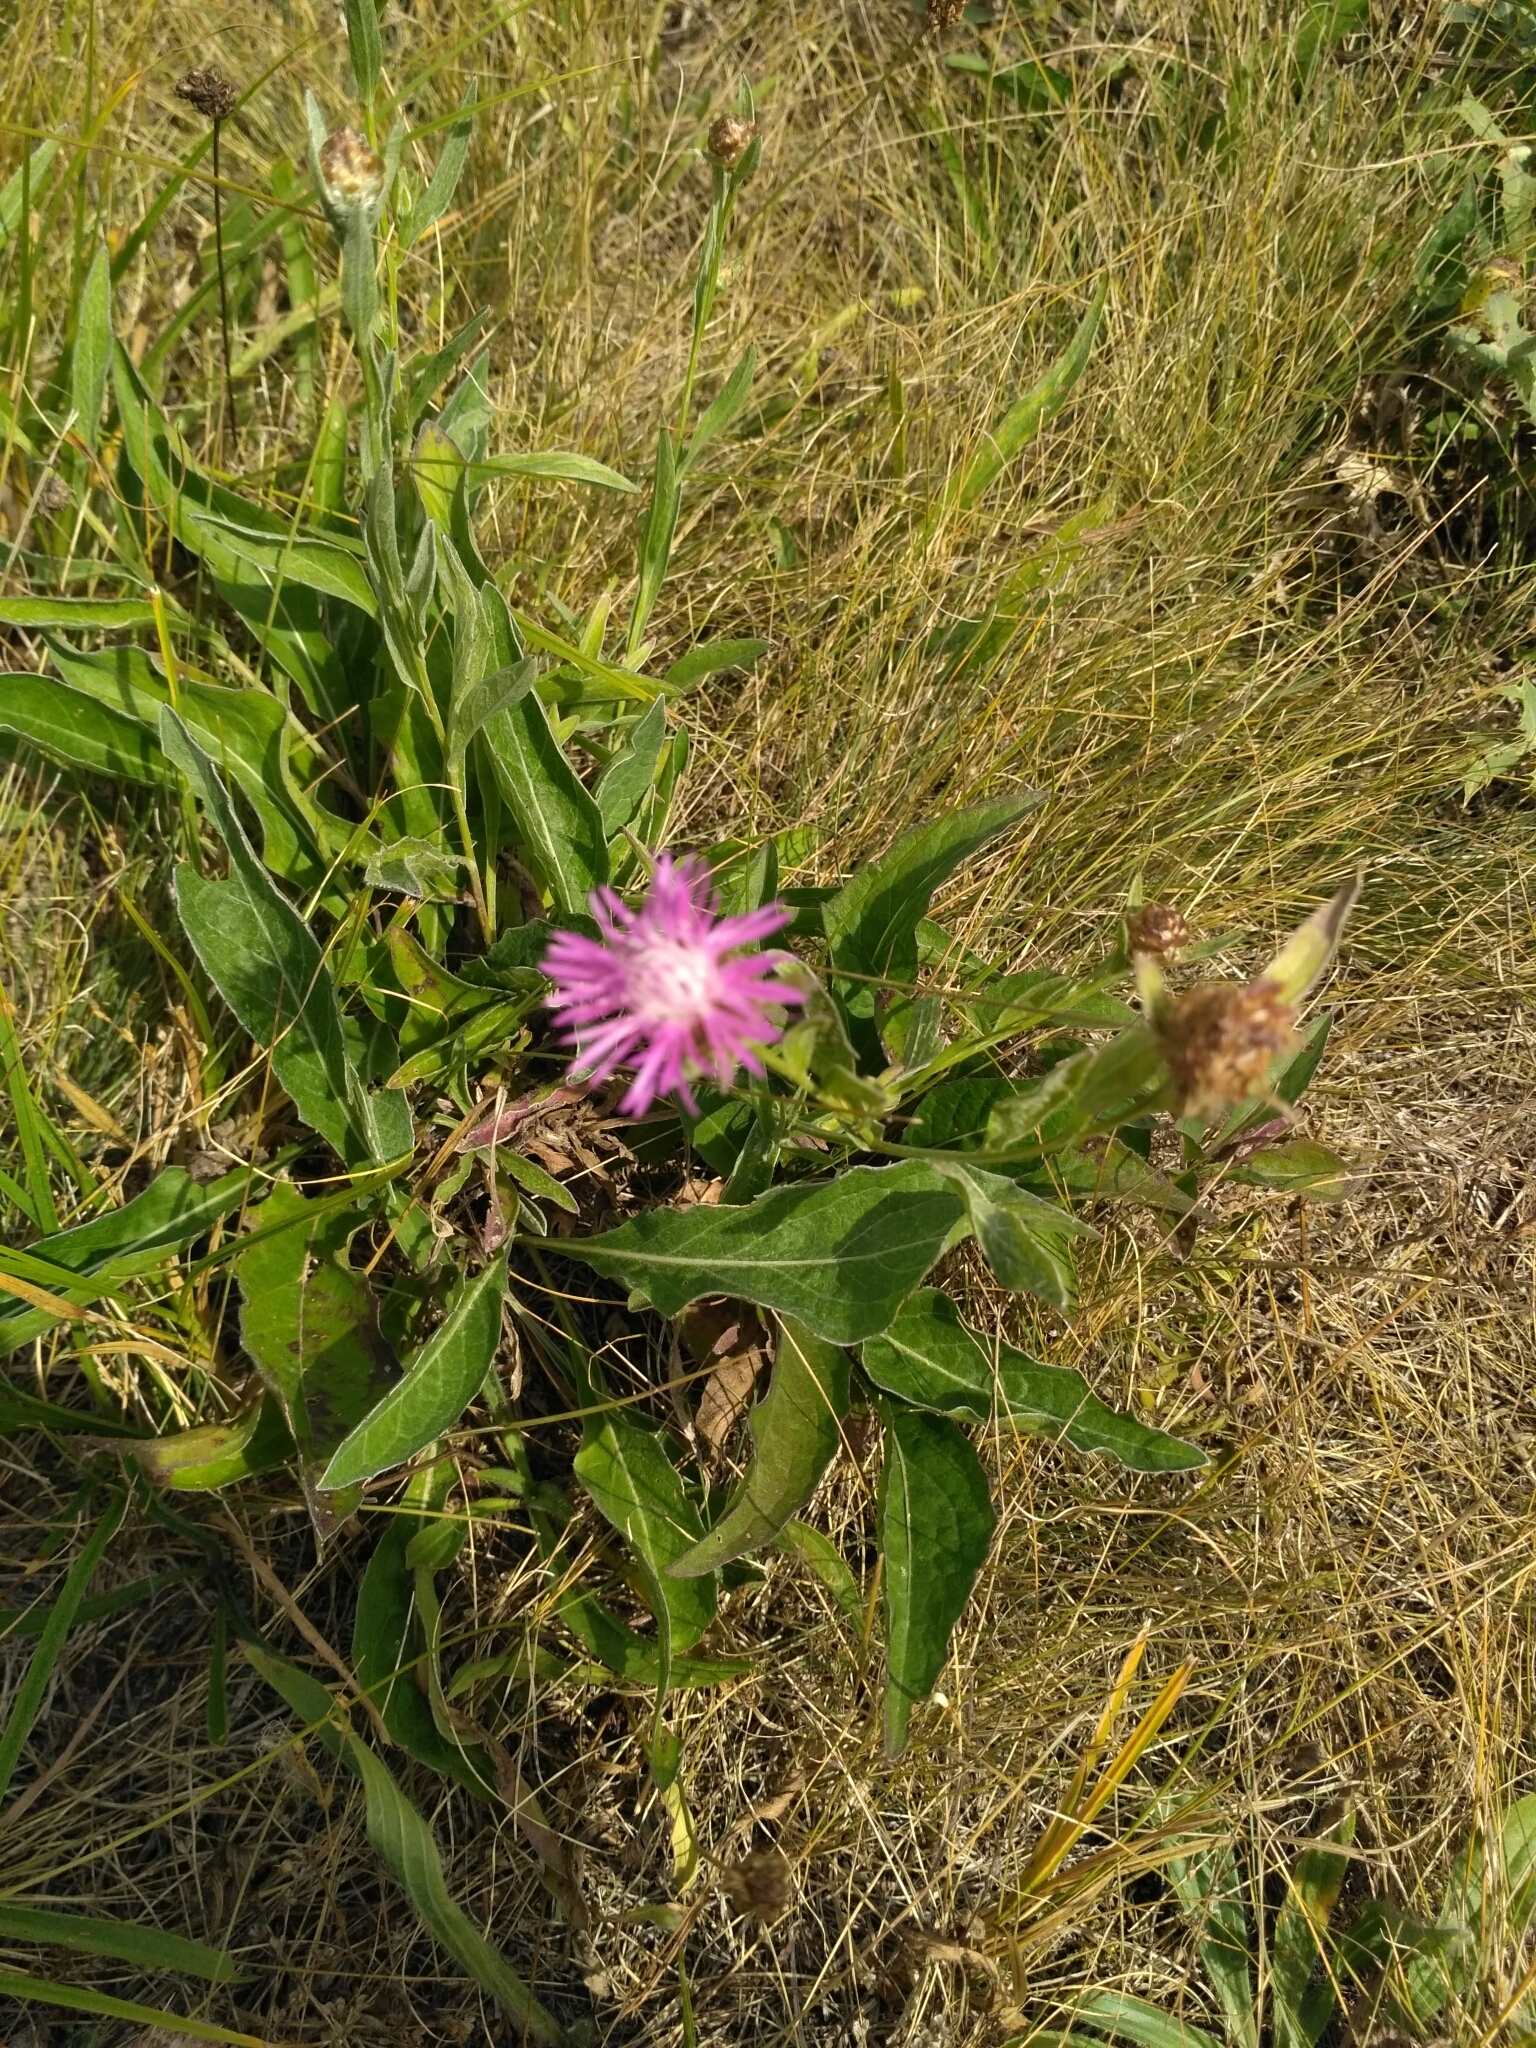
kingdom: Plantae
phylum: Tracheophyta
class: Magnoliopsida
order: Asterales
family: Asteraceae
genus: Centaurea
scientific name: Centaurea jacea
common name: Brown knapweed
